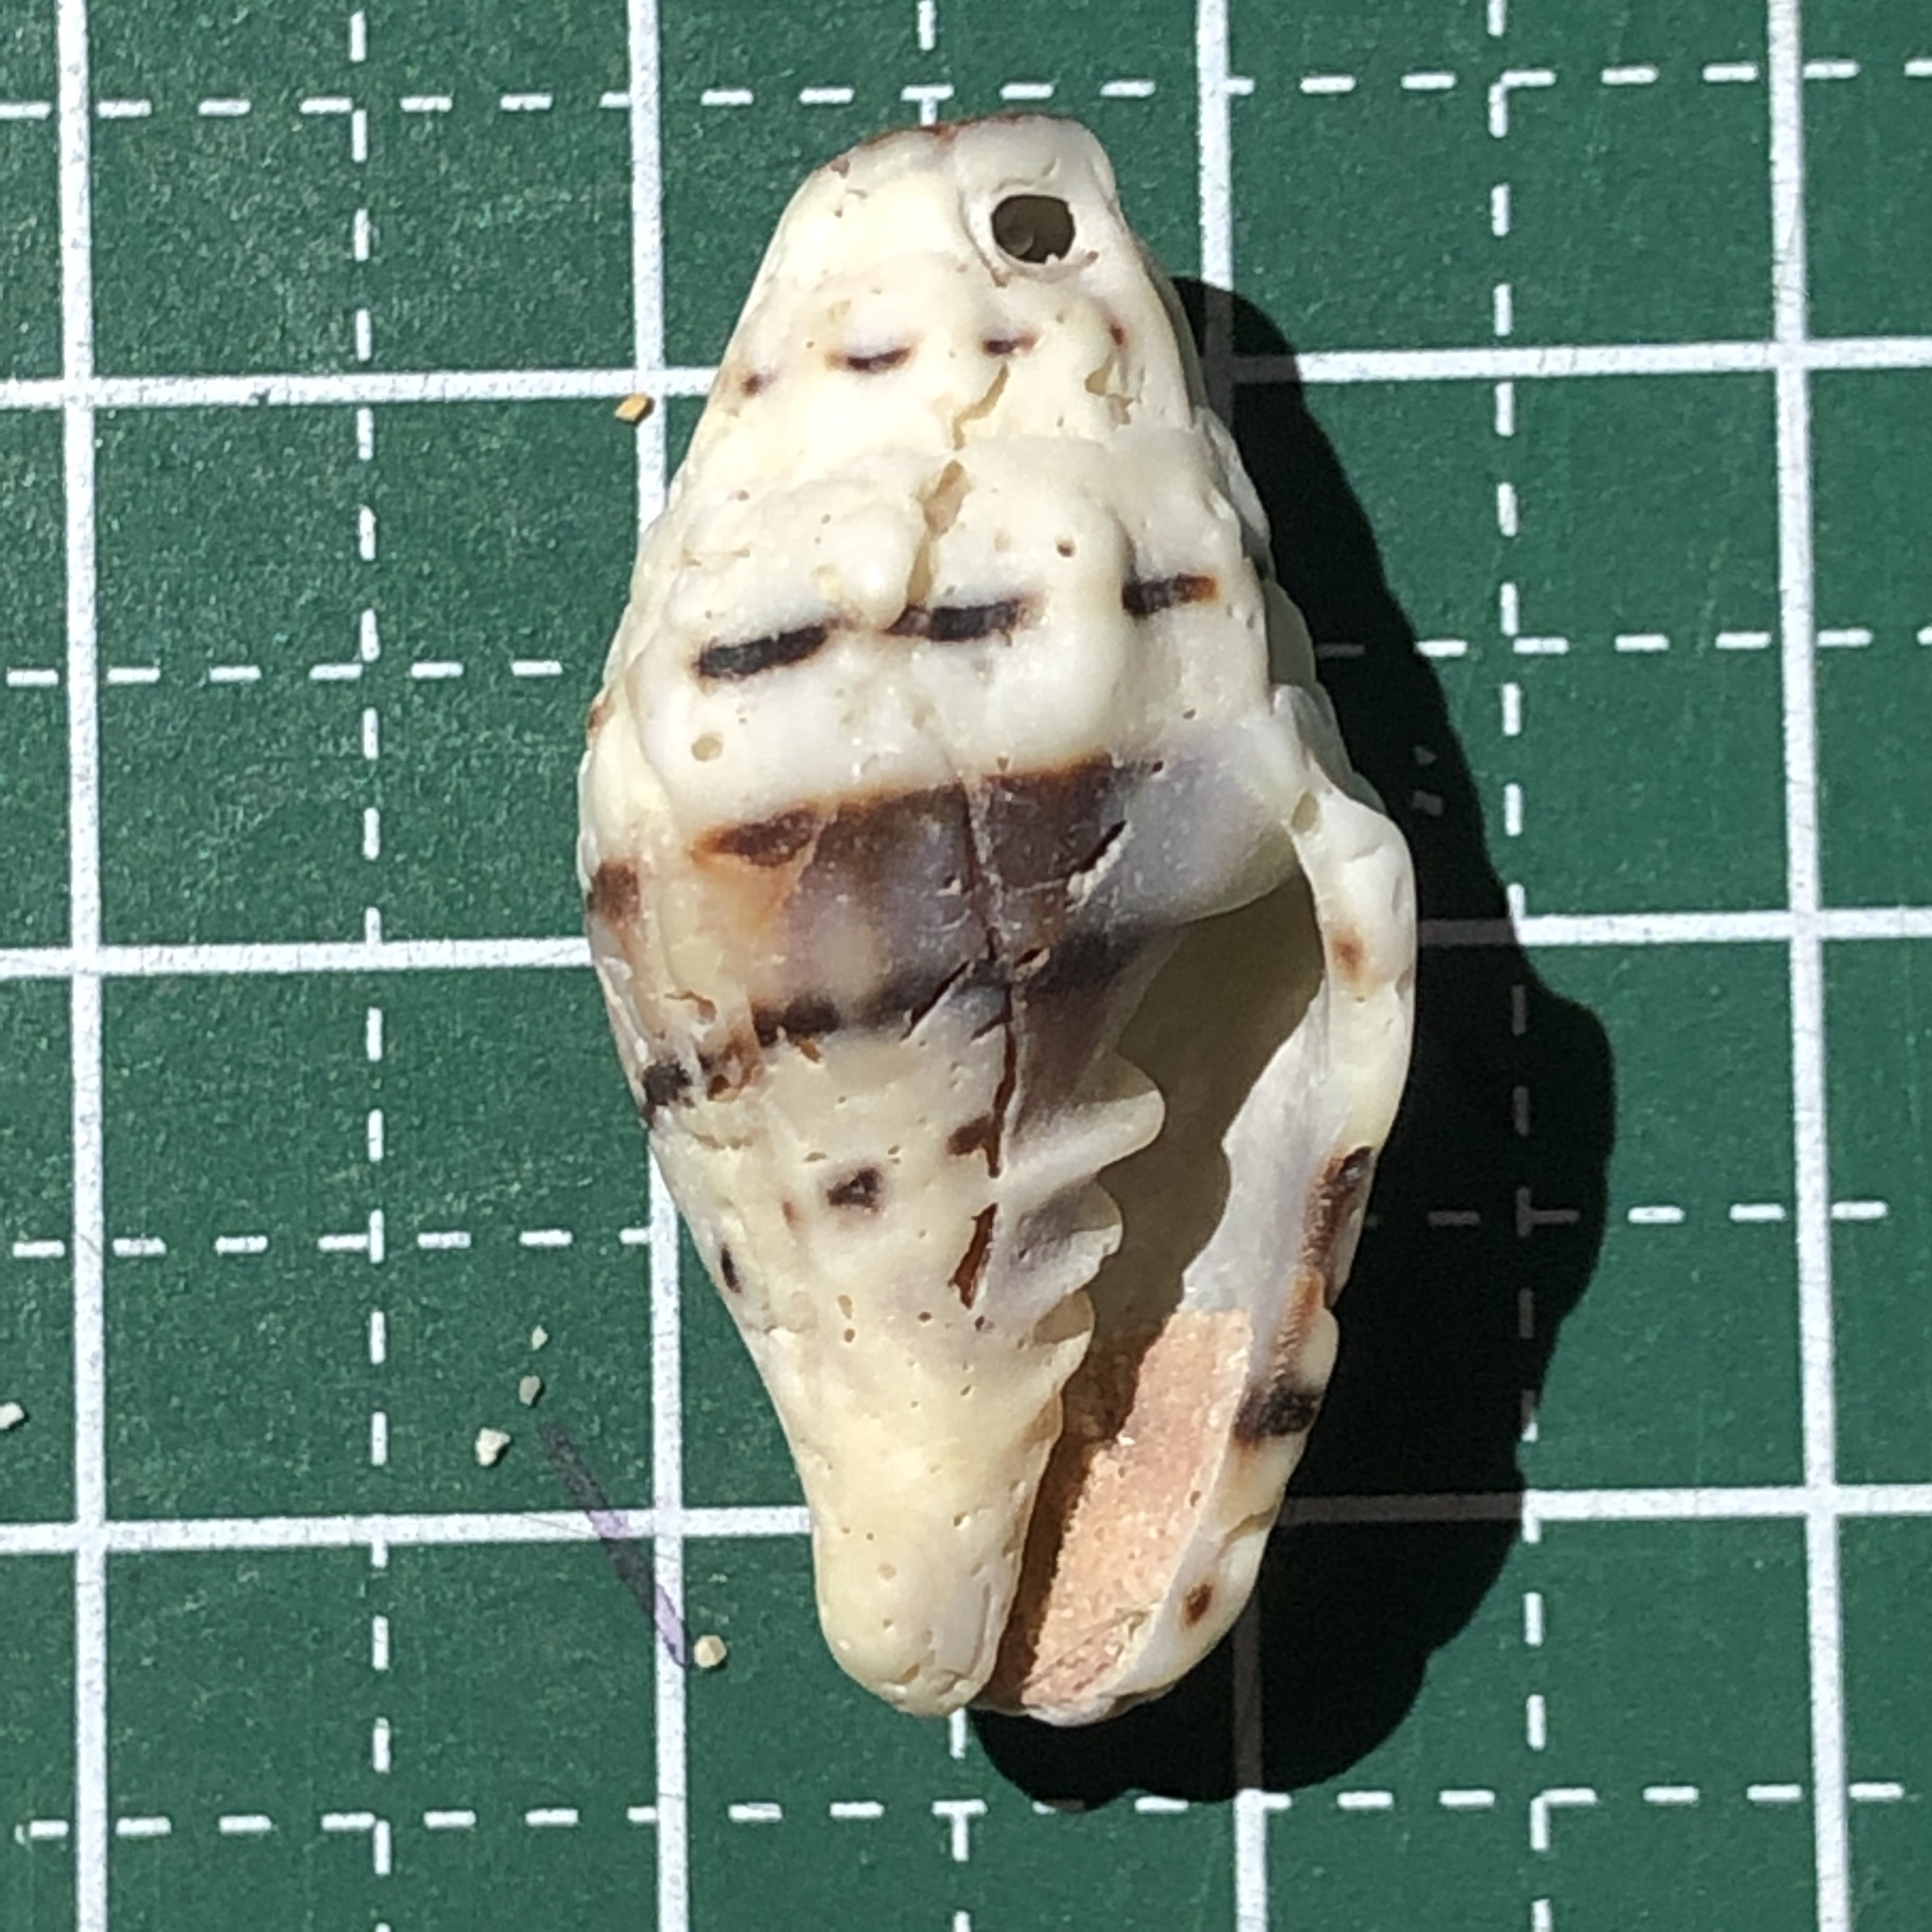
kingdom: Animalia
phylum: Mollusca
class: Gastropoda
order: Neogastropoda
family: Costellariidae
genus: Vexillum
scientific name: Vexillum plicarium
